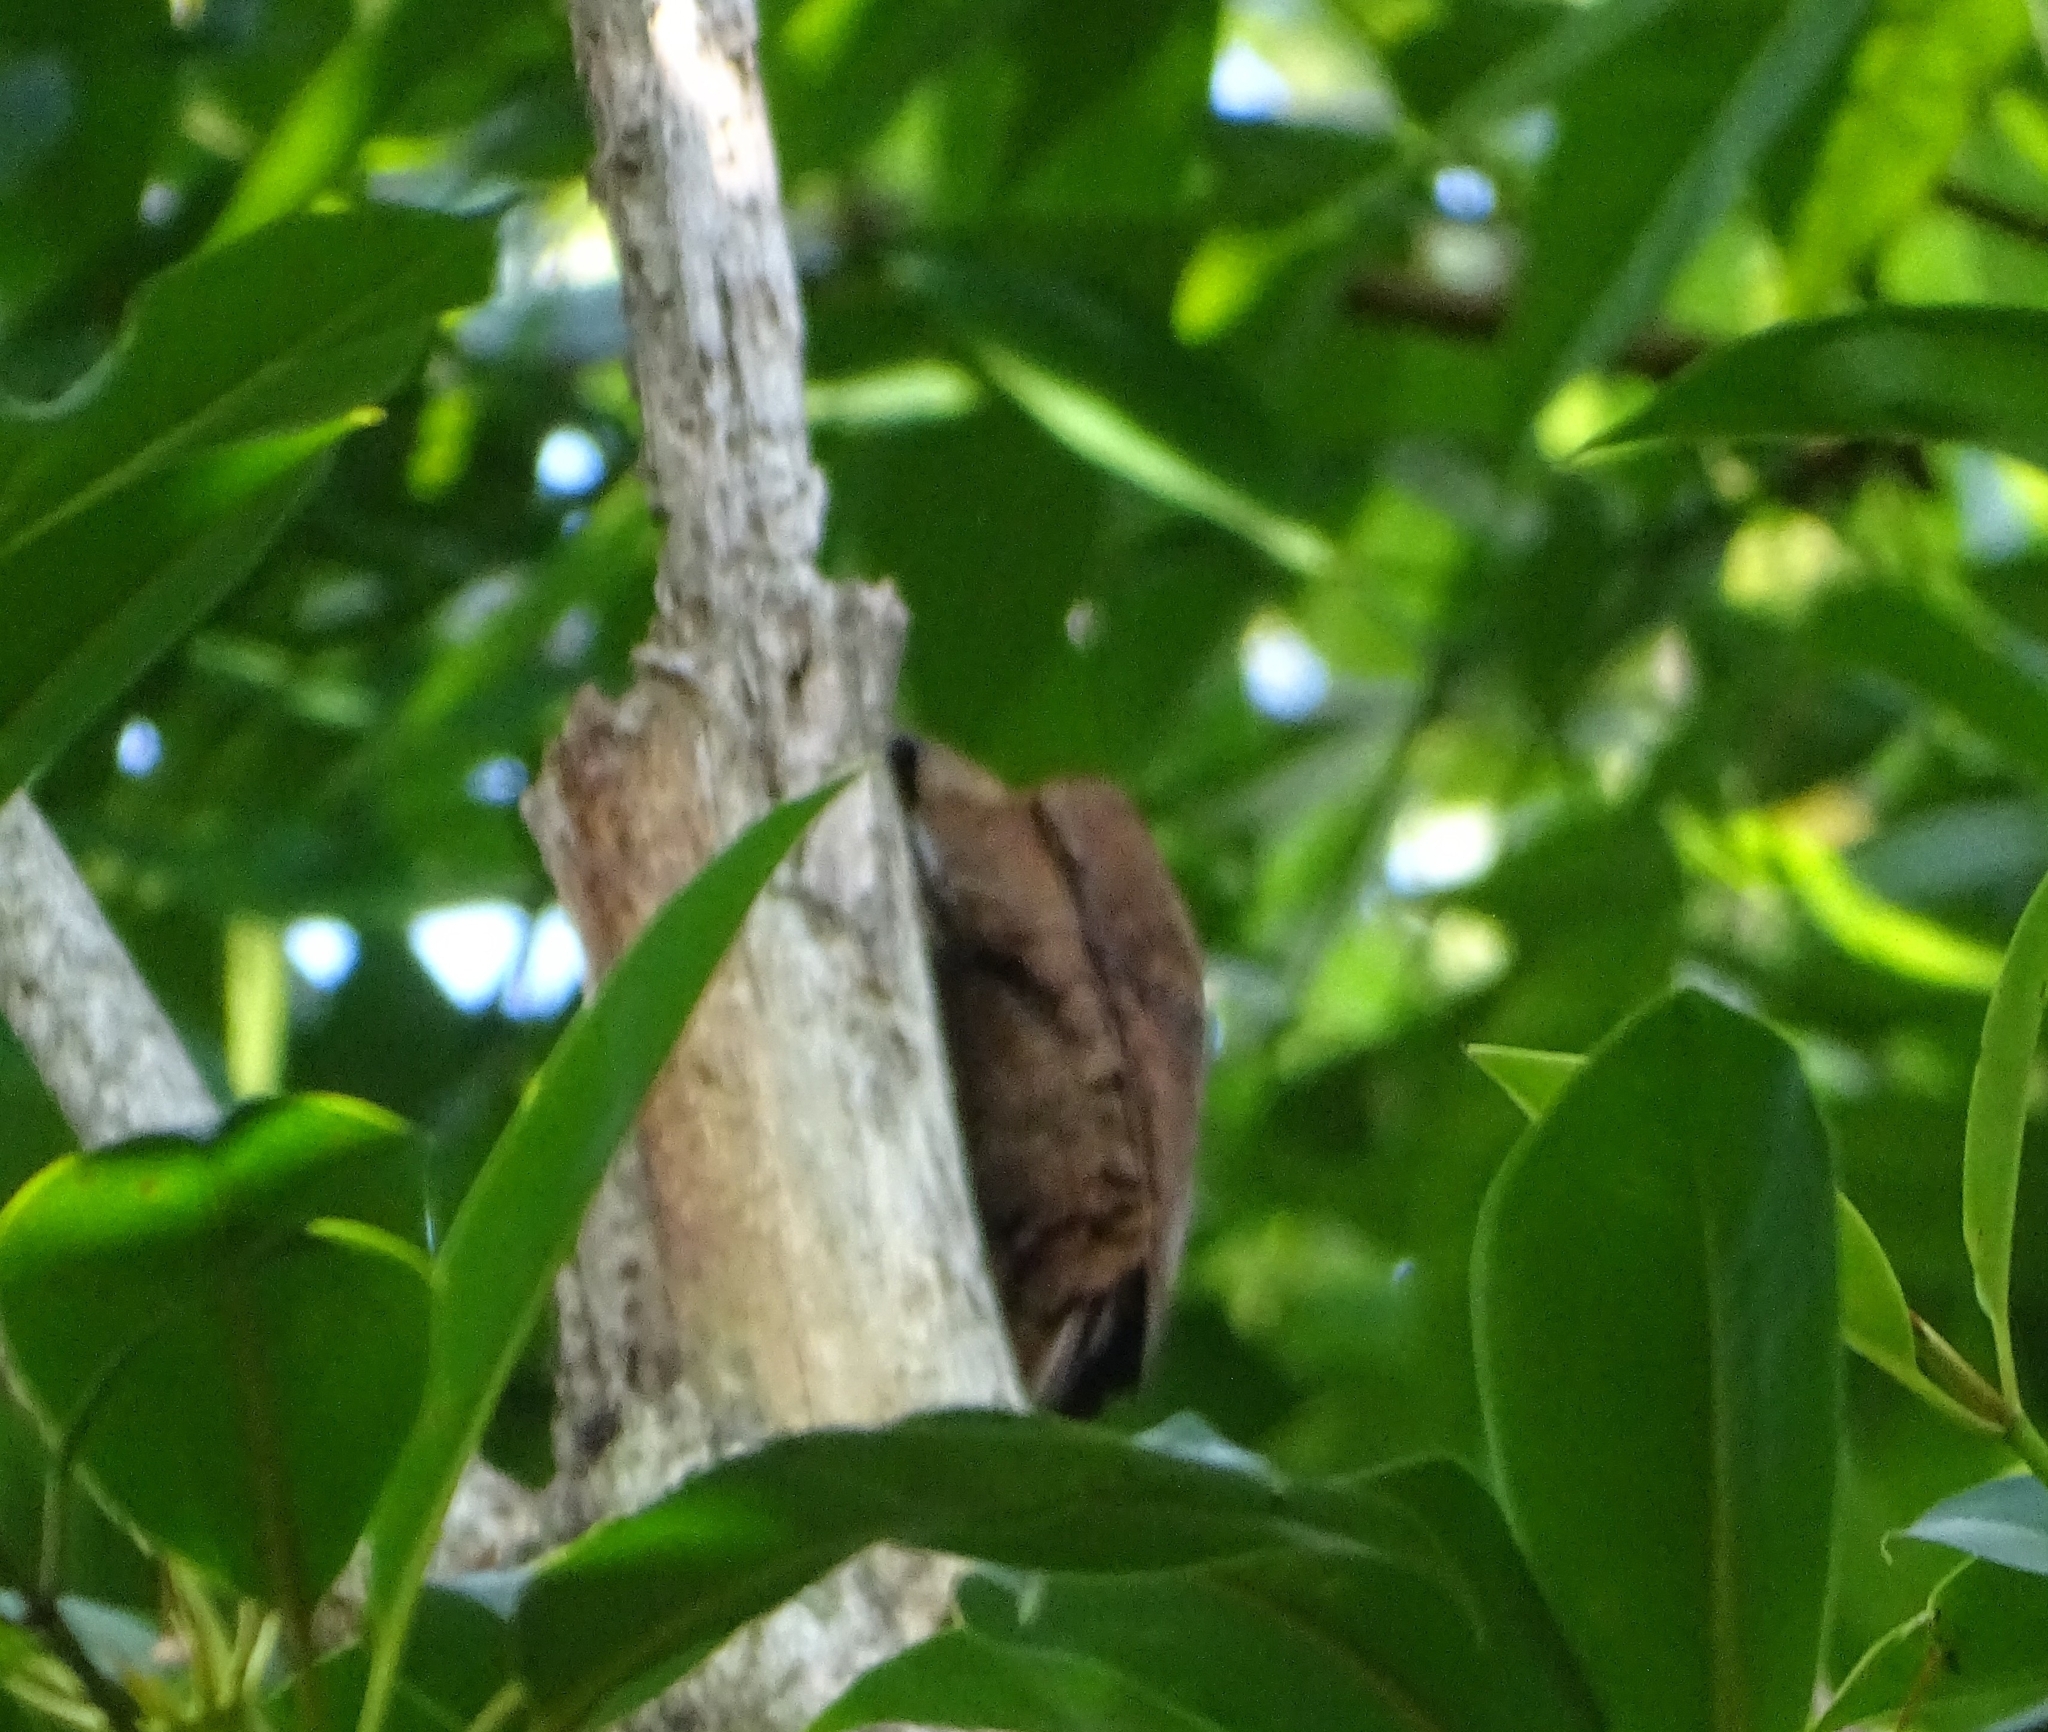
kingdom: Animalia
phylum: Chordata
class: Aves
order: Piciformes
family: Picidae
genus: Micropternus
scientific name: Micropternus brachyurus
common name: Rufous woodpecker
